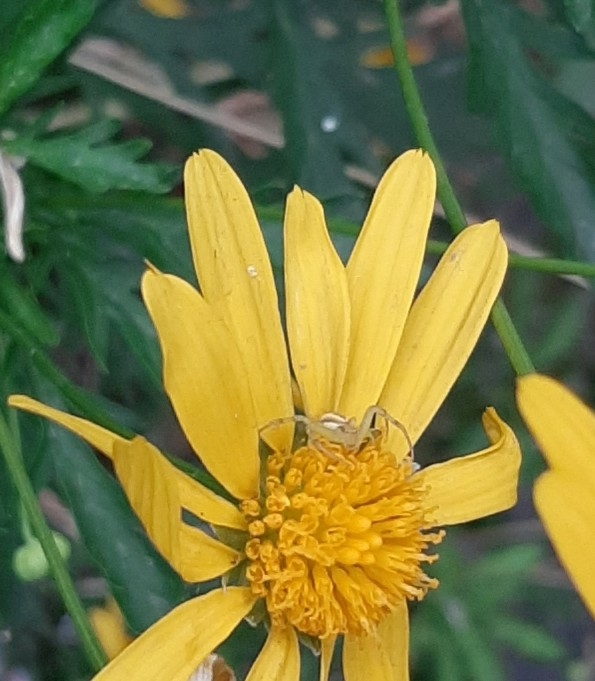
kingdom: Animalia
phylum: Arthropoda
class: Arachnida
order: Araneae
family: Thomisidae
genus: Misumenops
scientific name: Misumenops
